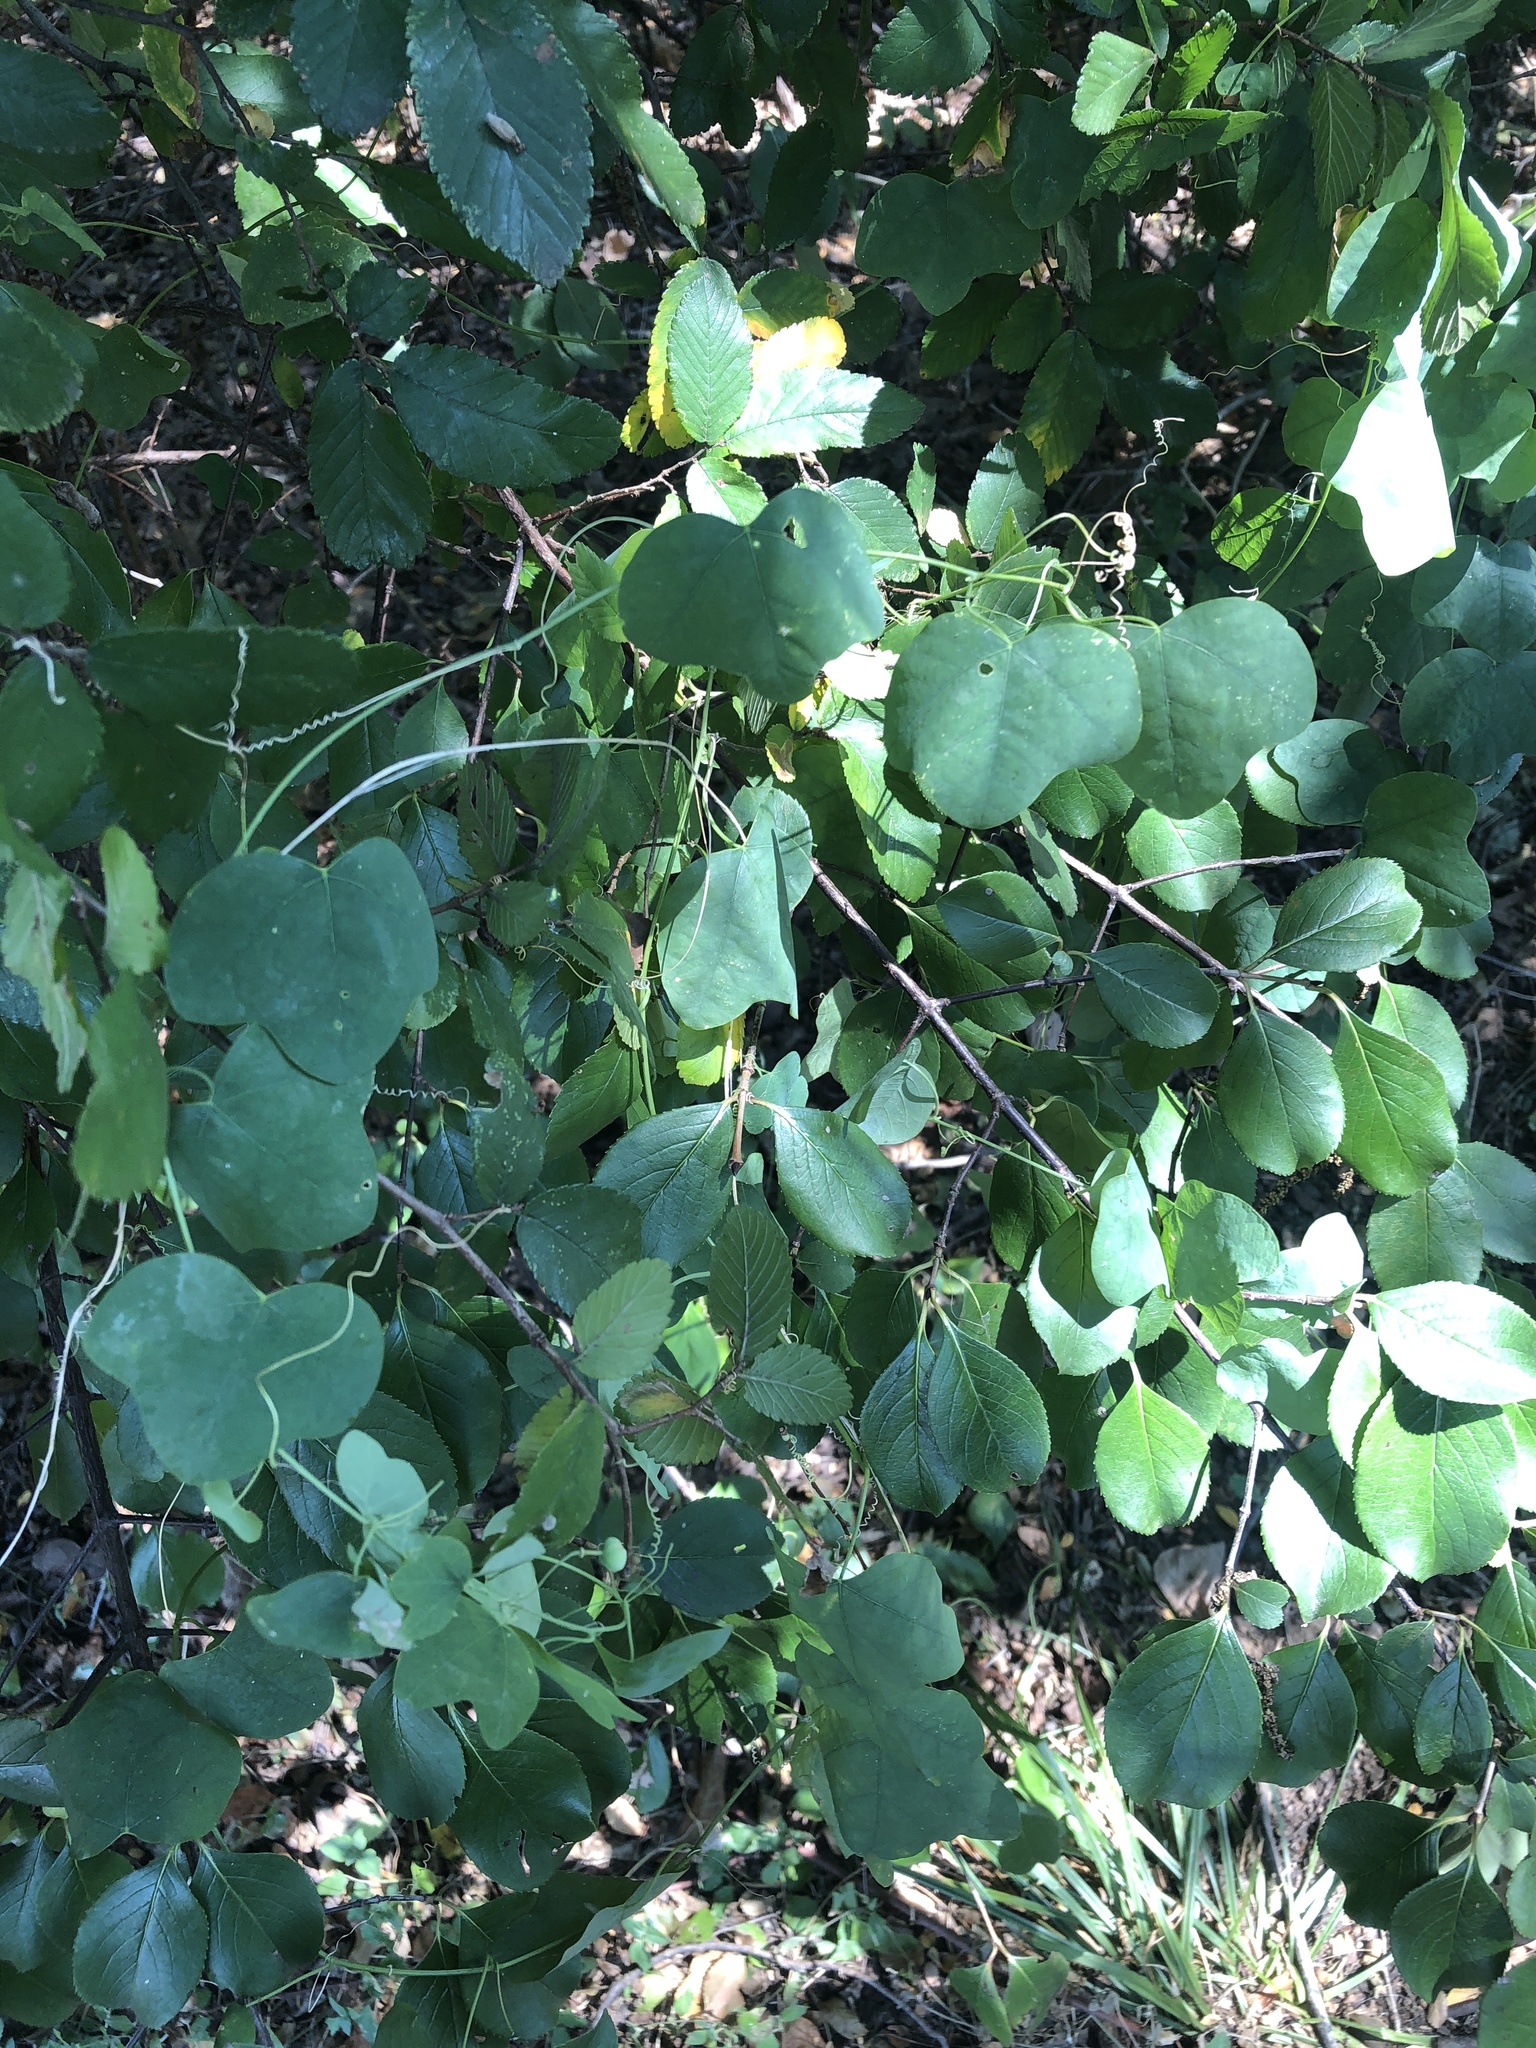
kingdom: Plantae
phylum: Tracheophyta
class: Magnoliopsida
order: Malpighiales
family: Passifloraceae
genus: Passiflora
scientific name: Passiflora lutea
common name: Yellow passionflower
